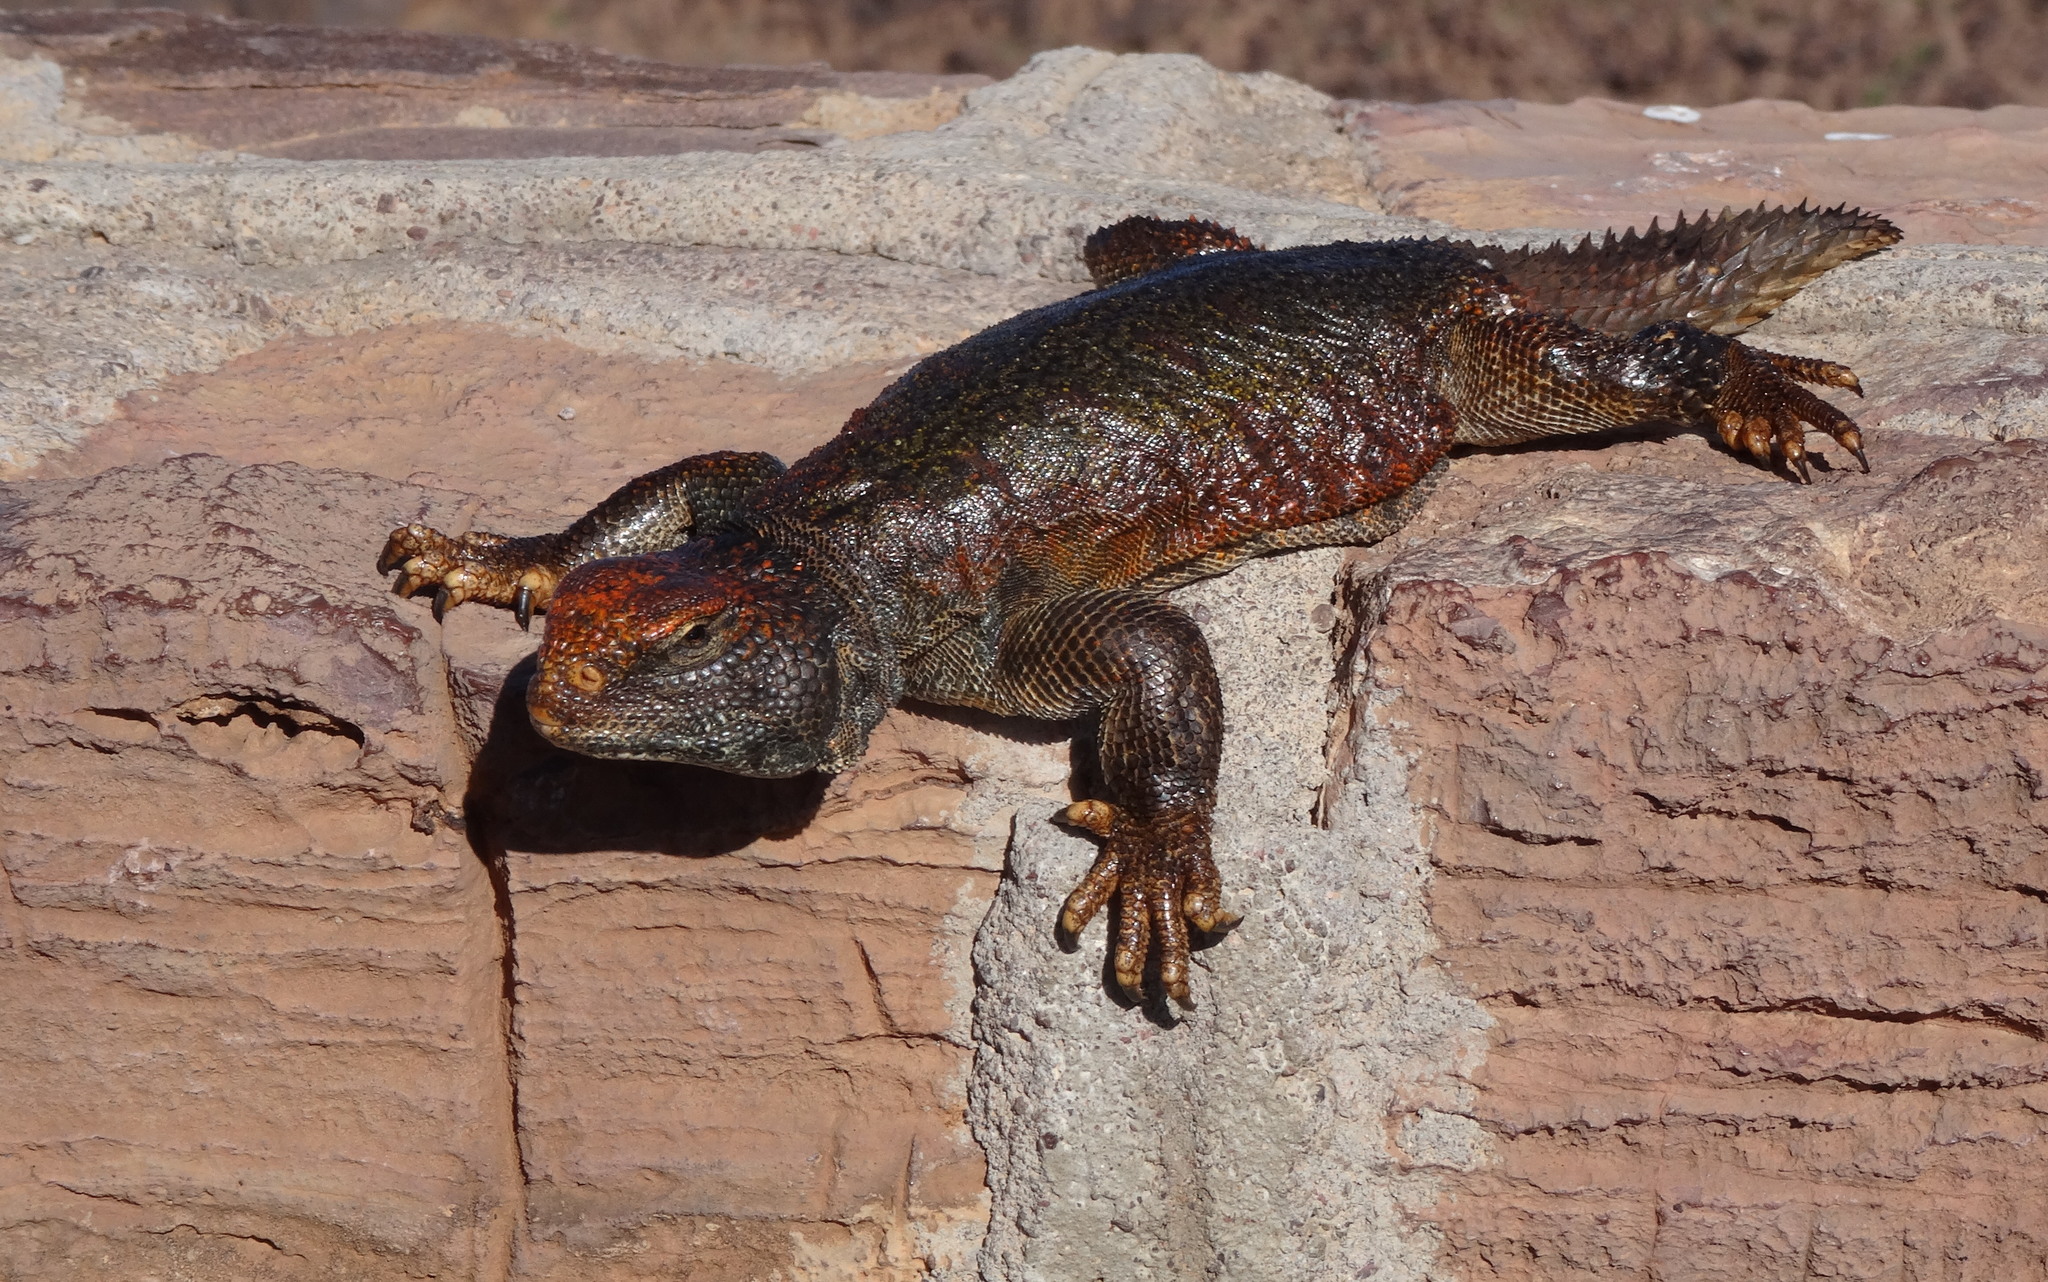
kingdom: Animalia
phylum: Chordata
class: Squamata
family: Agamidae
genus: Uromastyx
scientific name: Uromastyx nigriventris
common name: Moroccan spiny-tailed lizard
